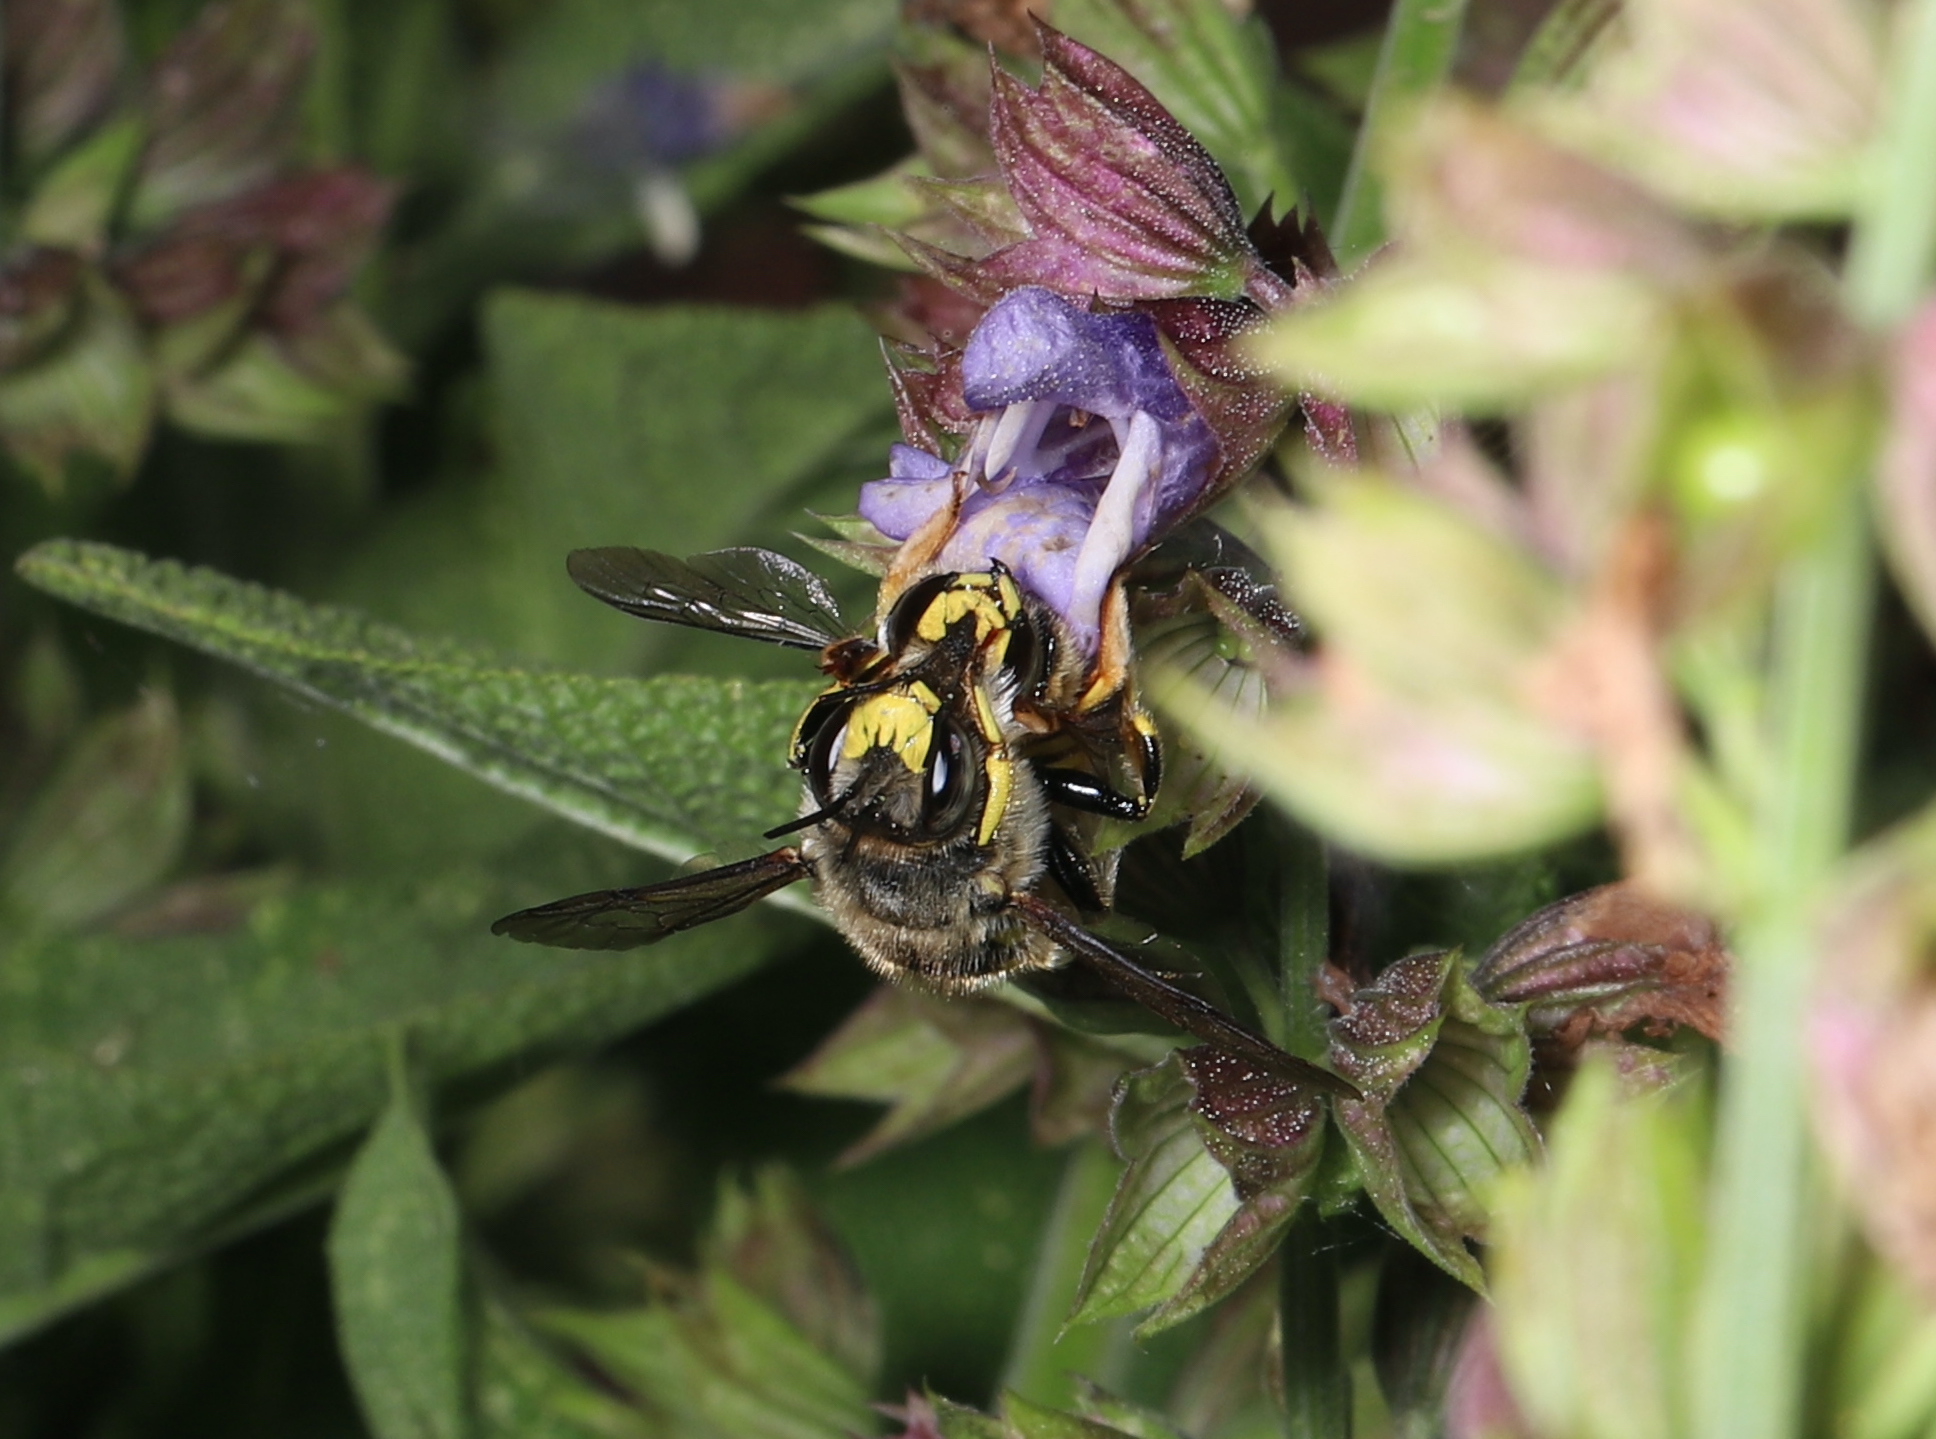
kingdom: Animalia
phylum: Arthropoda
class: Insecta
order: Hymenoptera
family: Megachilidae
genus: Anthidium
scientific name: Anthidium manicatum
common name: Wool carder bee
